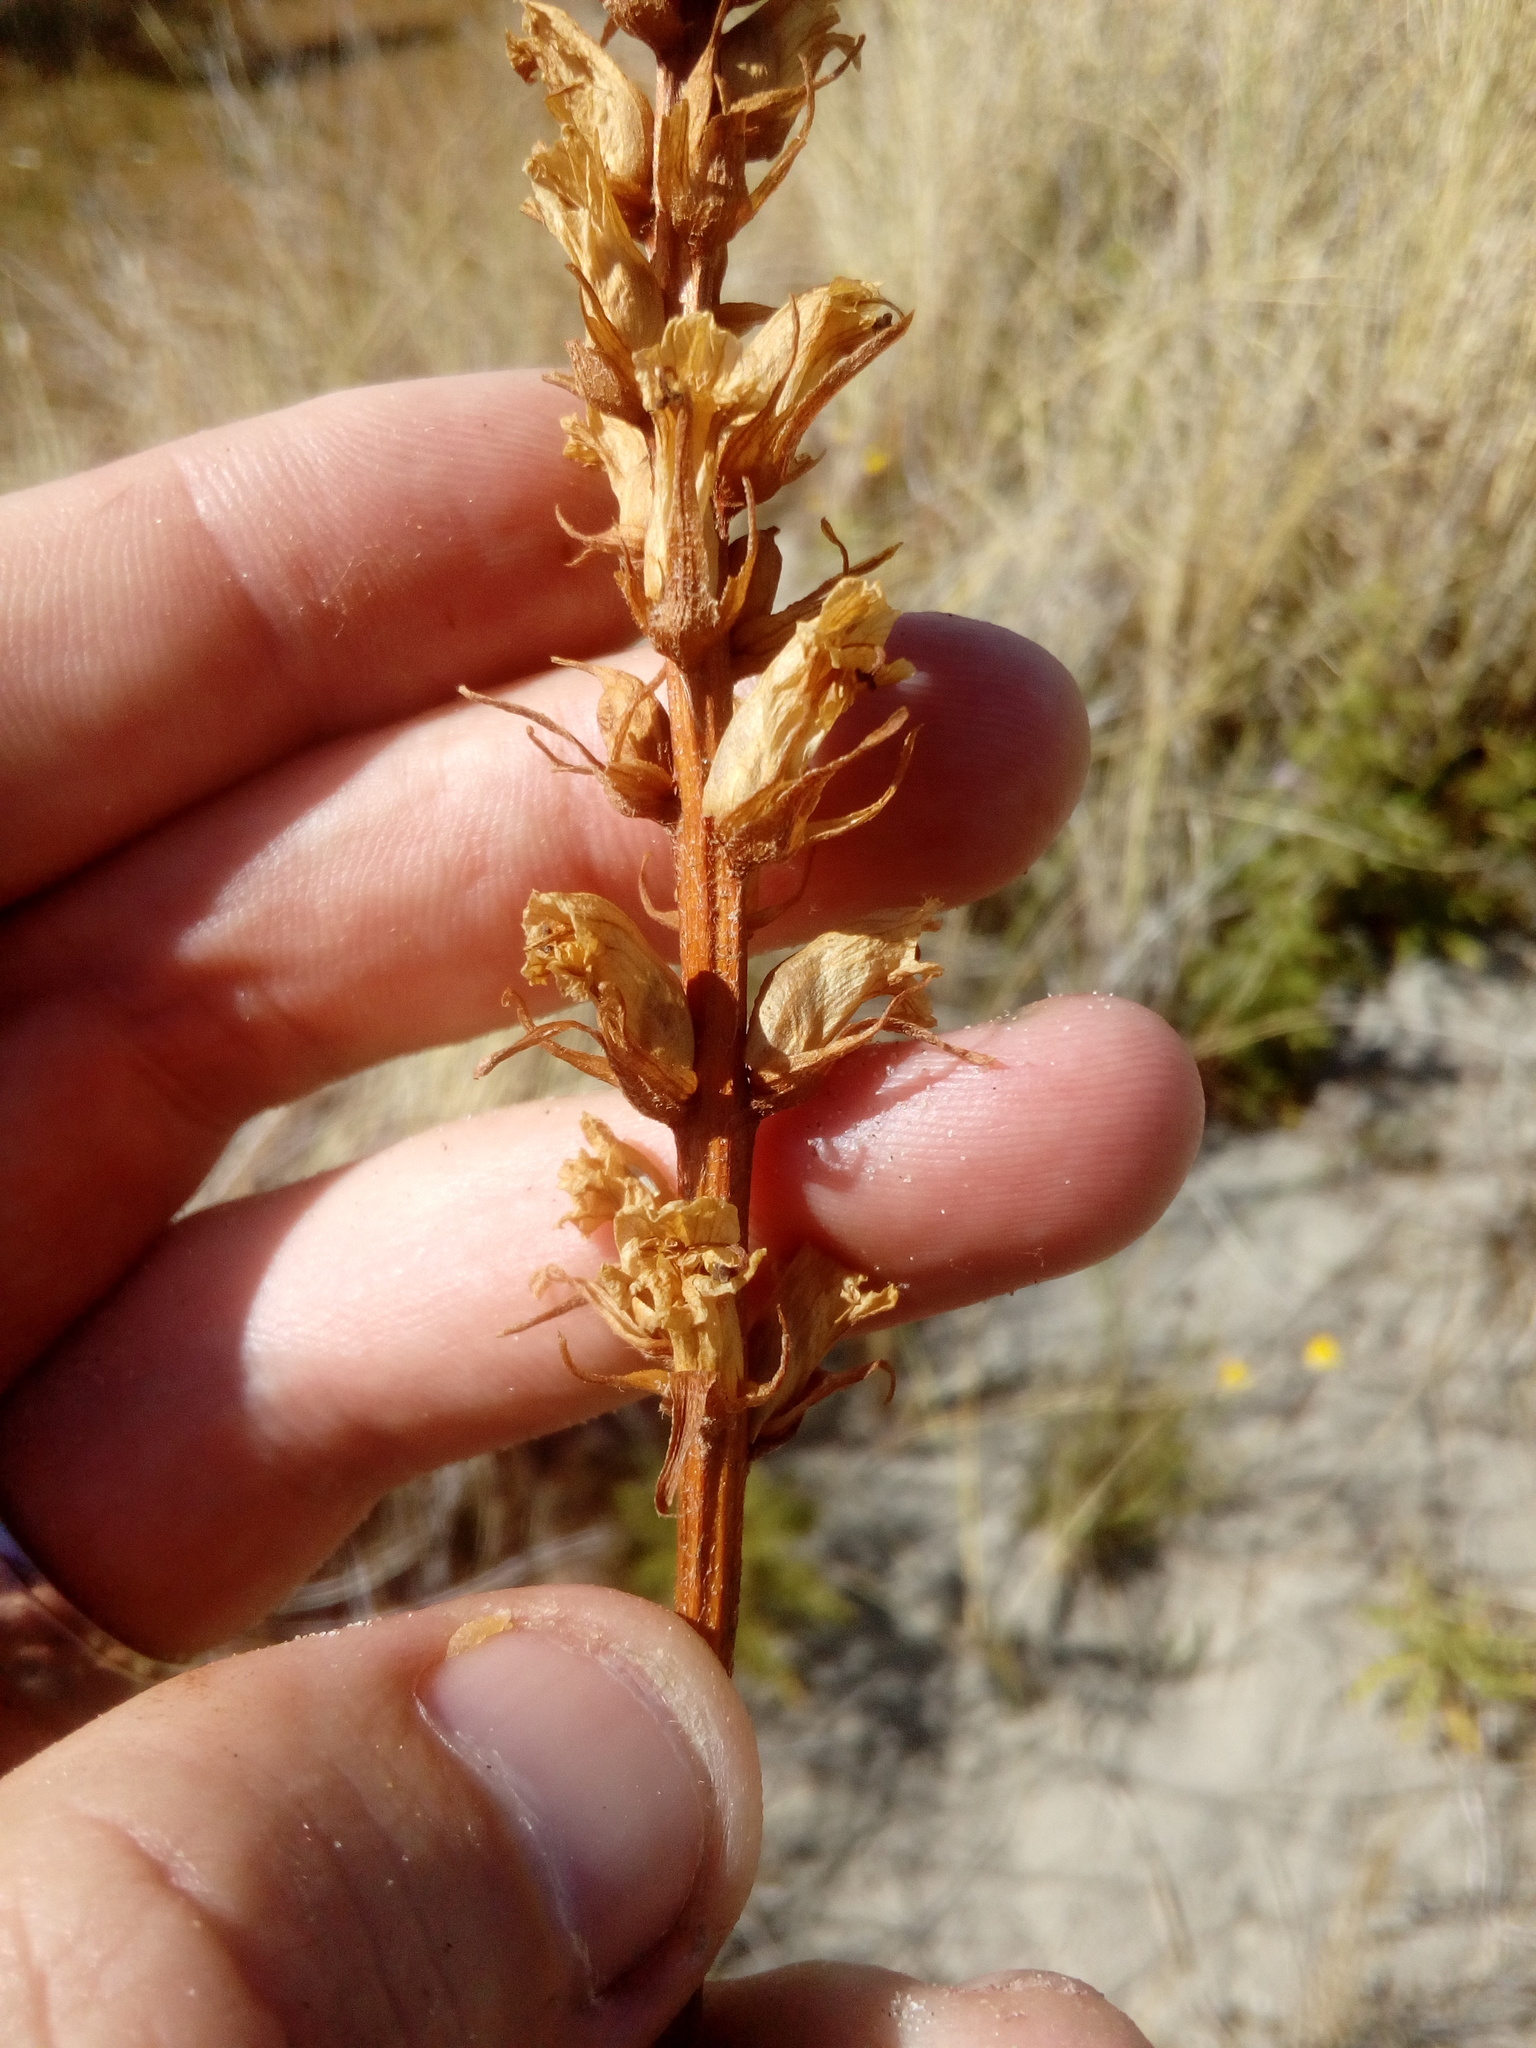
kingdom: Plantae
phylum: Tracheophyta
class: Magnoliopsida
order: Lamiales
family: Orobanchaceae
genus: Orobanche
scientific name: Orobanche minor
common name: Common broomrape
